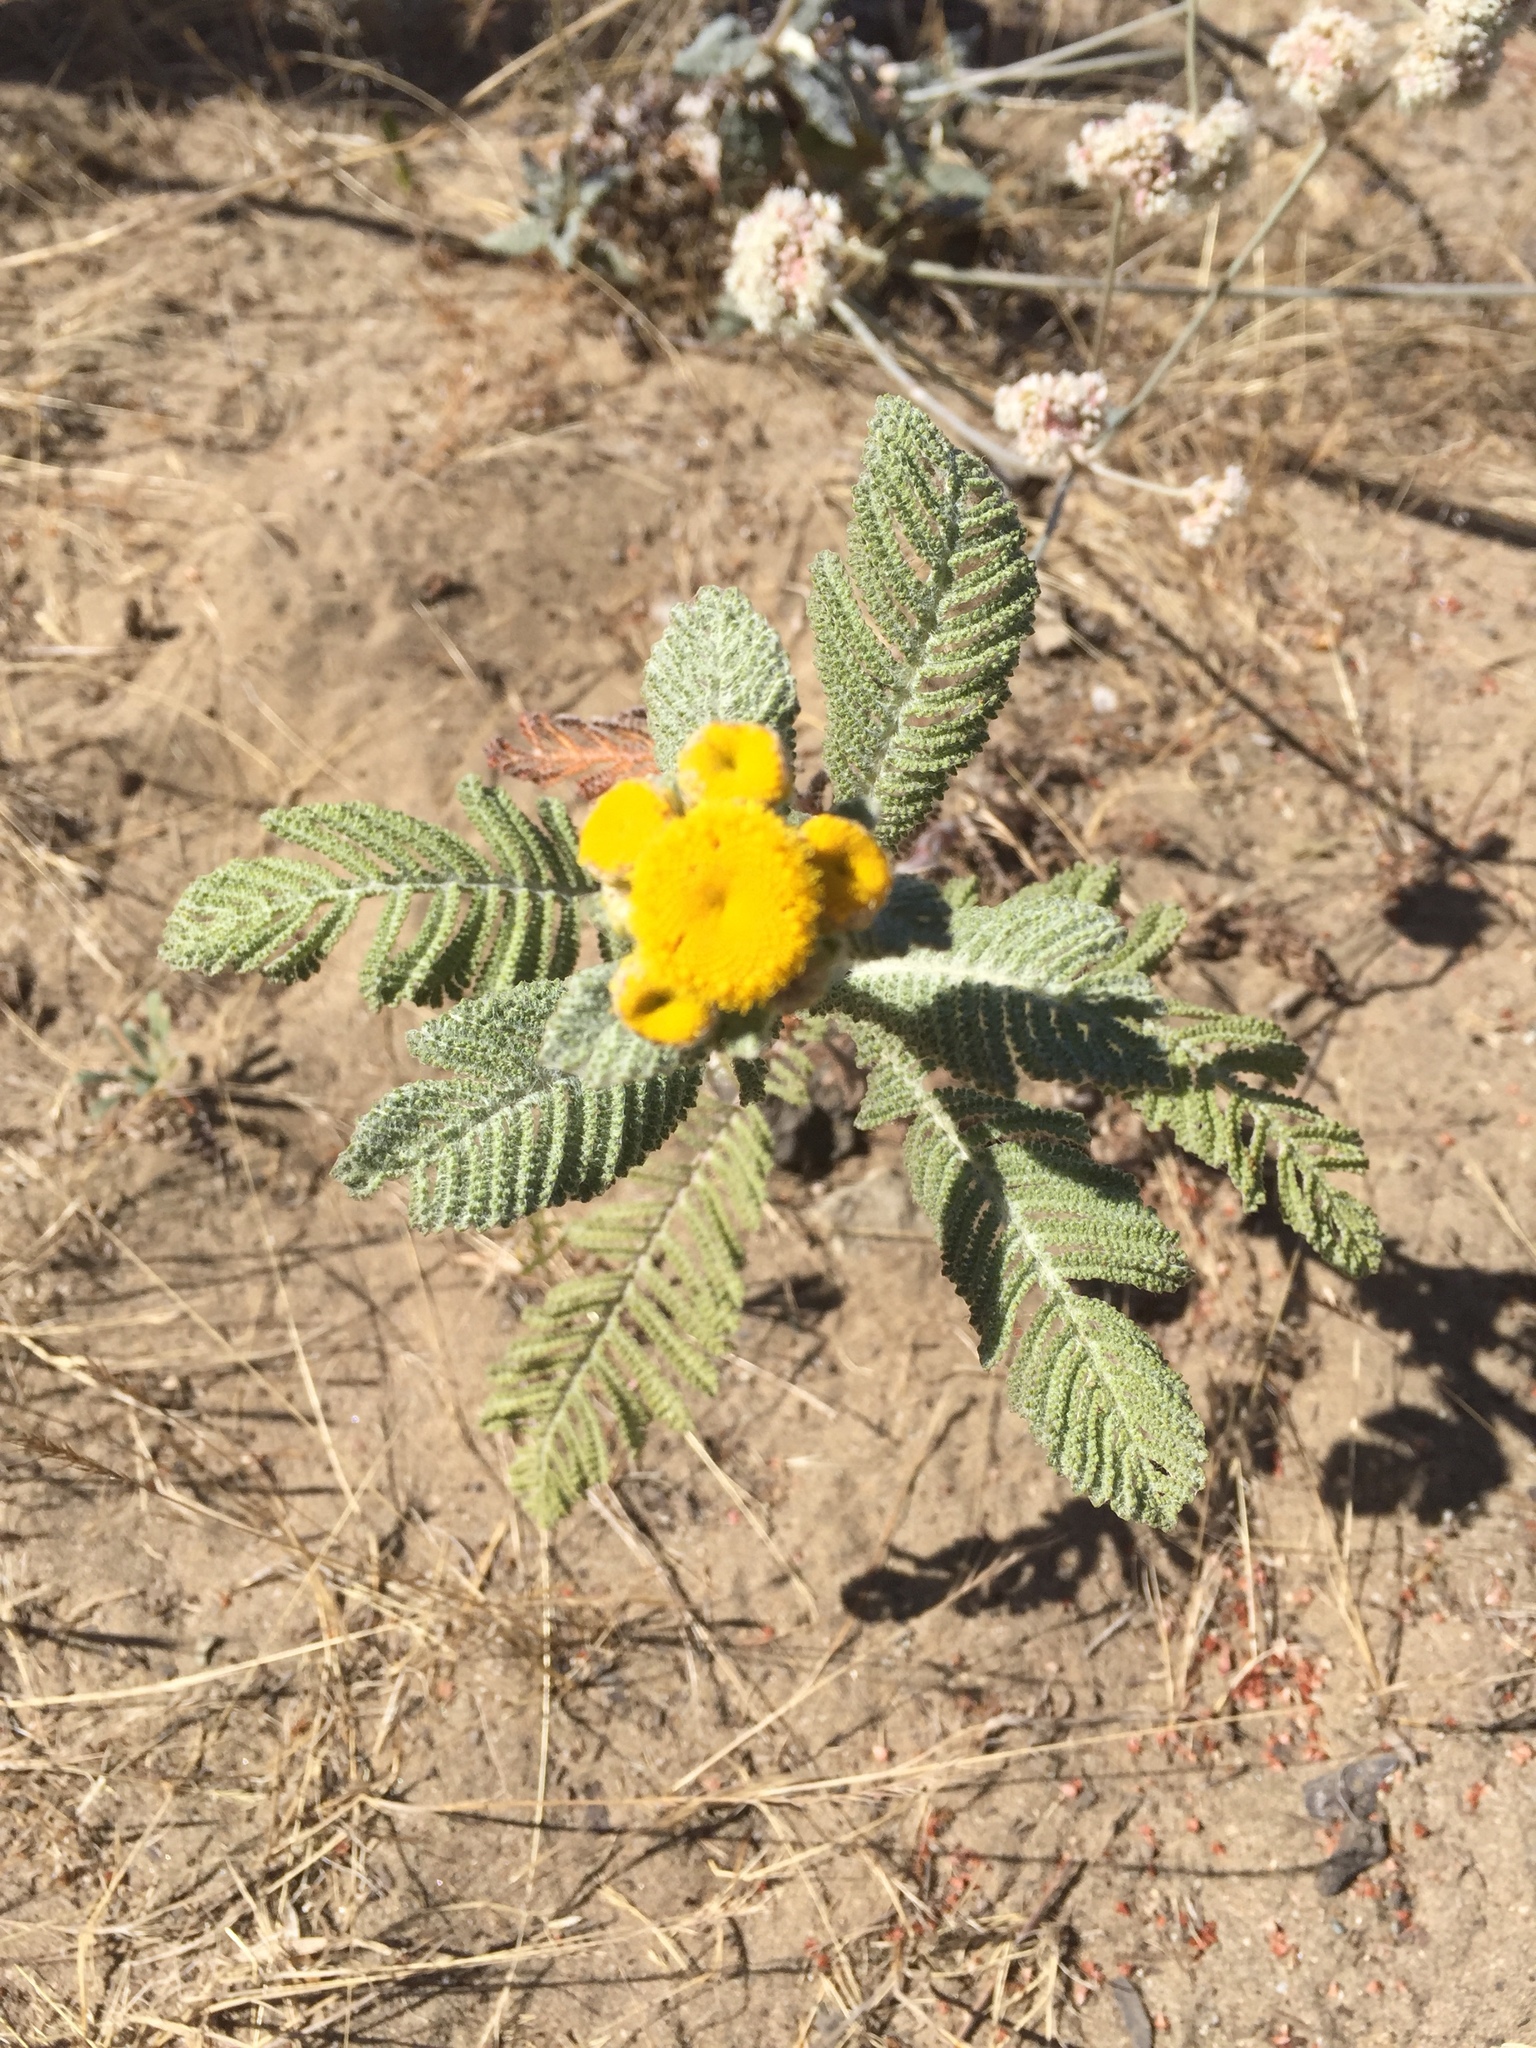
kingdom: Plantae
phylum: Tracheophyta
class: Magnoliopsida
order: Asterales
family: Asteraceae
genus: Tanacetum
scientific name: Tanacetum bipinnatum
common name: Dwarf tansy
